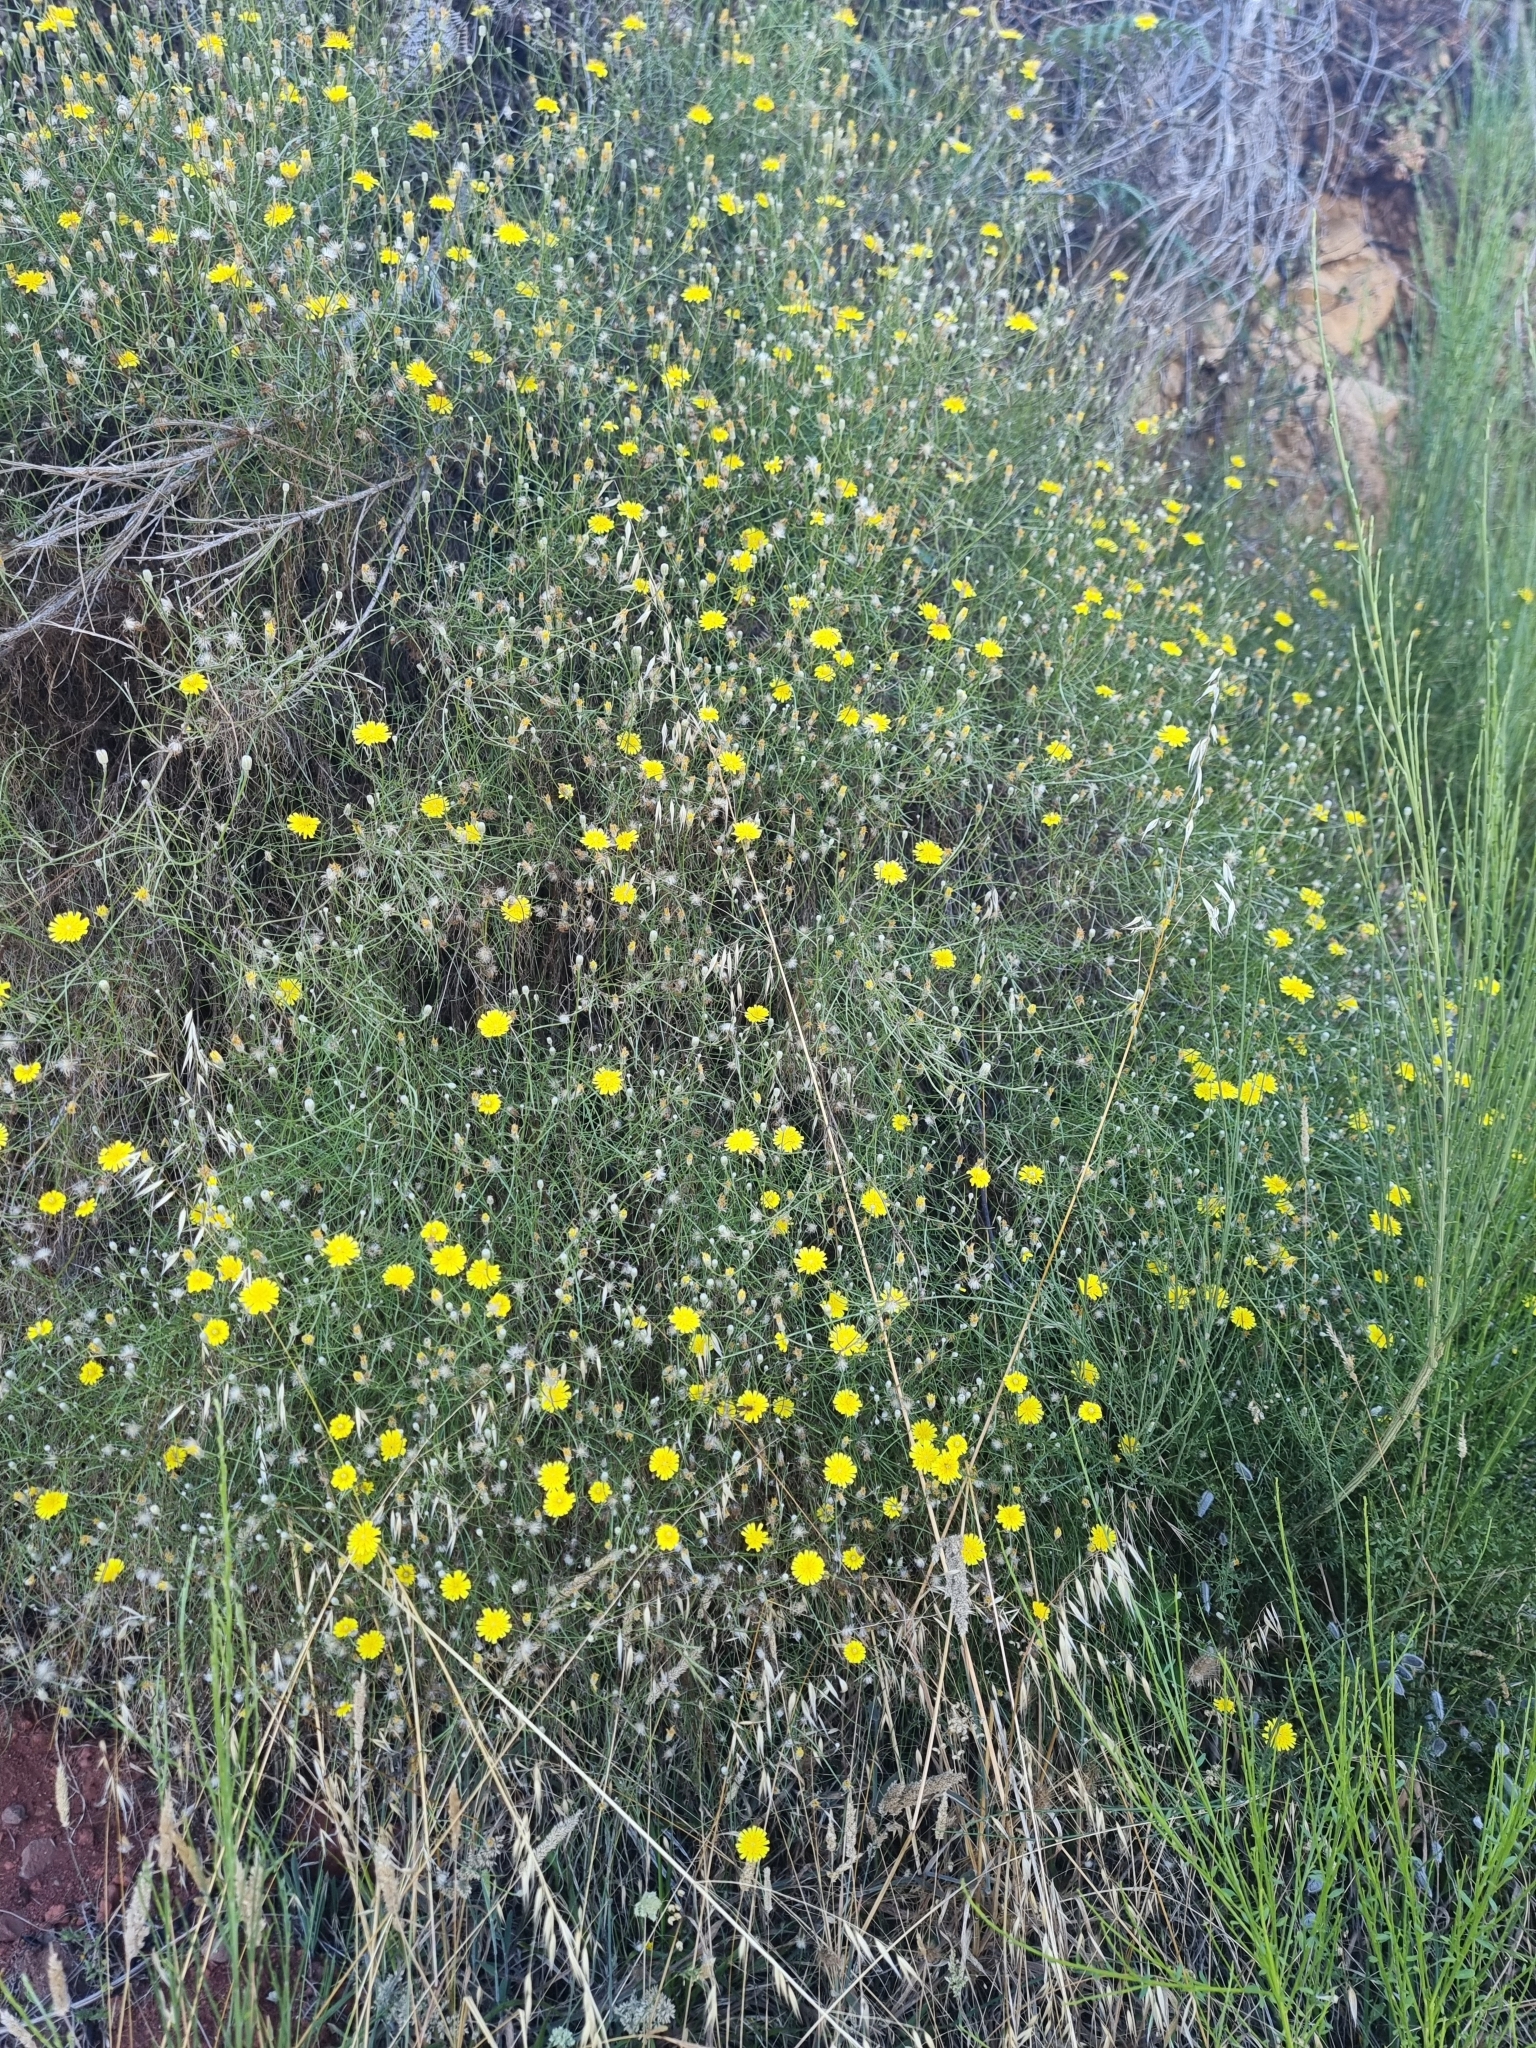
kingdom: Plantae
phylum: Tracheophyta
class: Magnoliopsida
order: Asterales
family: Asteraceae
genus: Tolpis
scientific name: Tolpis succulenta
